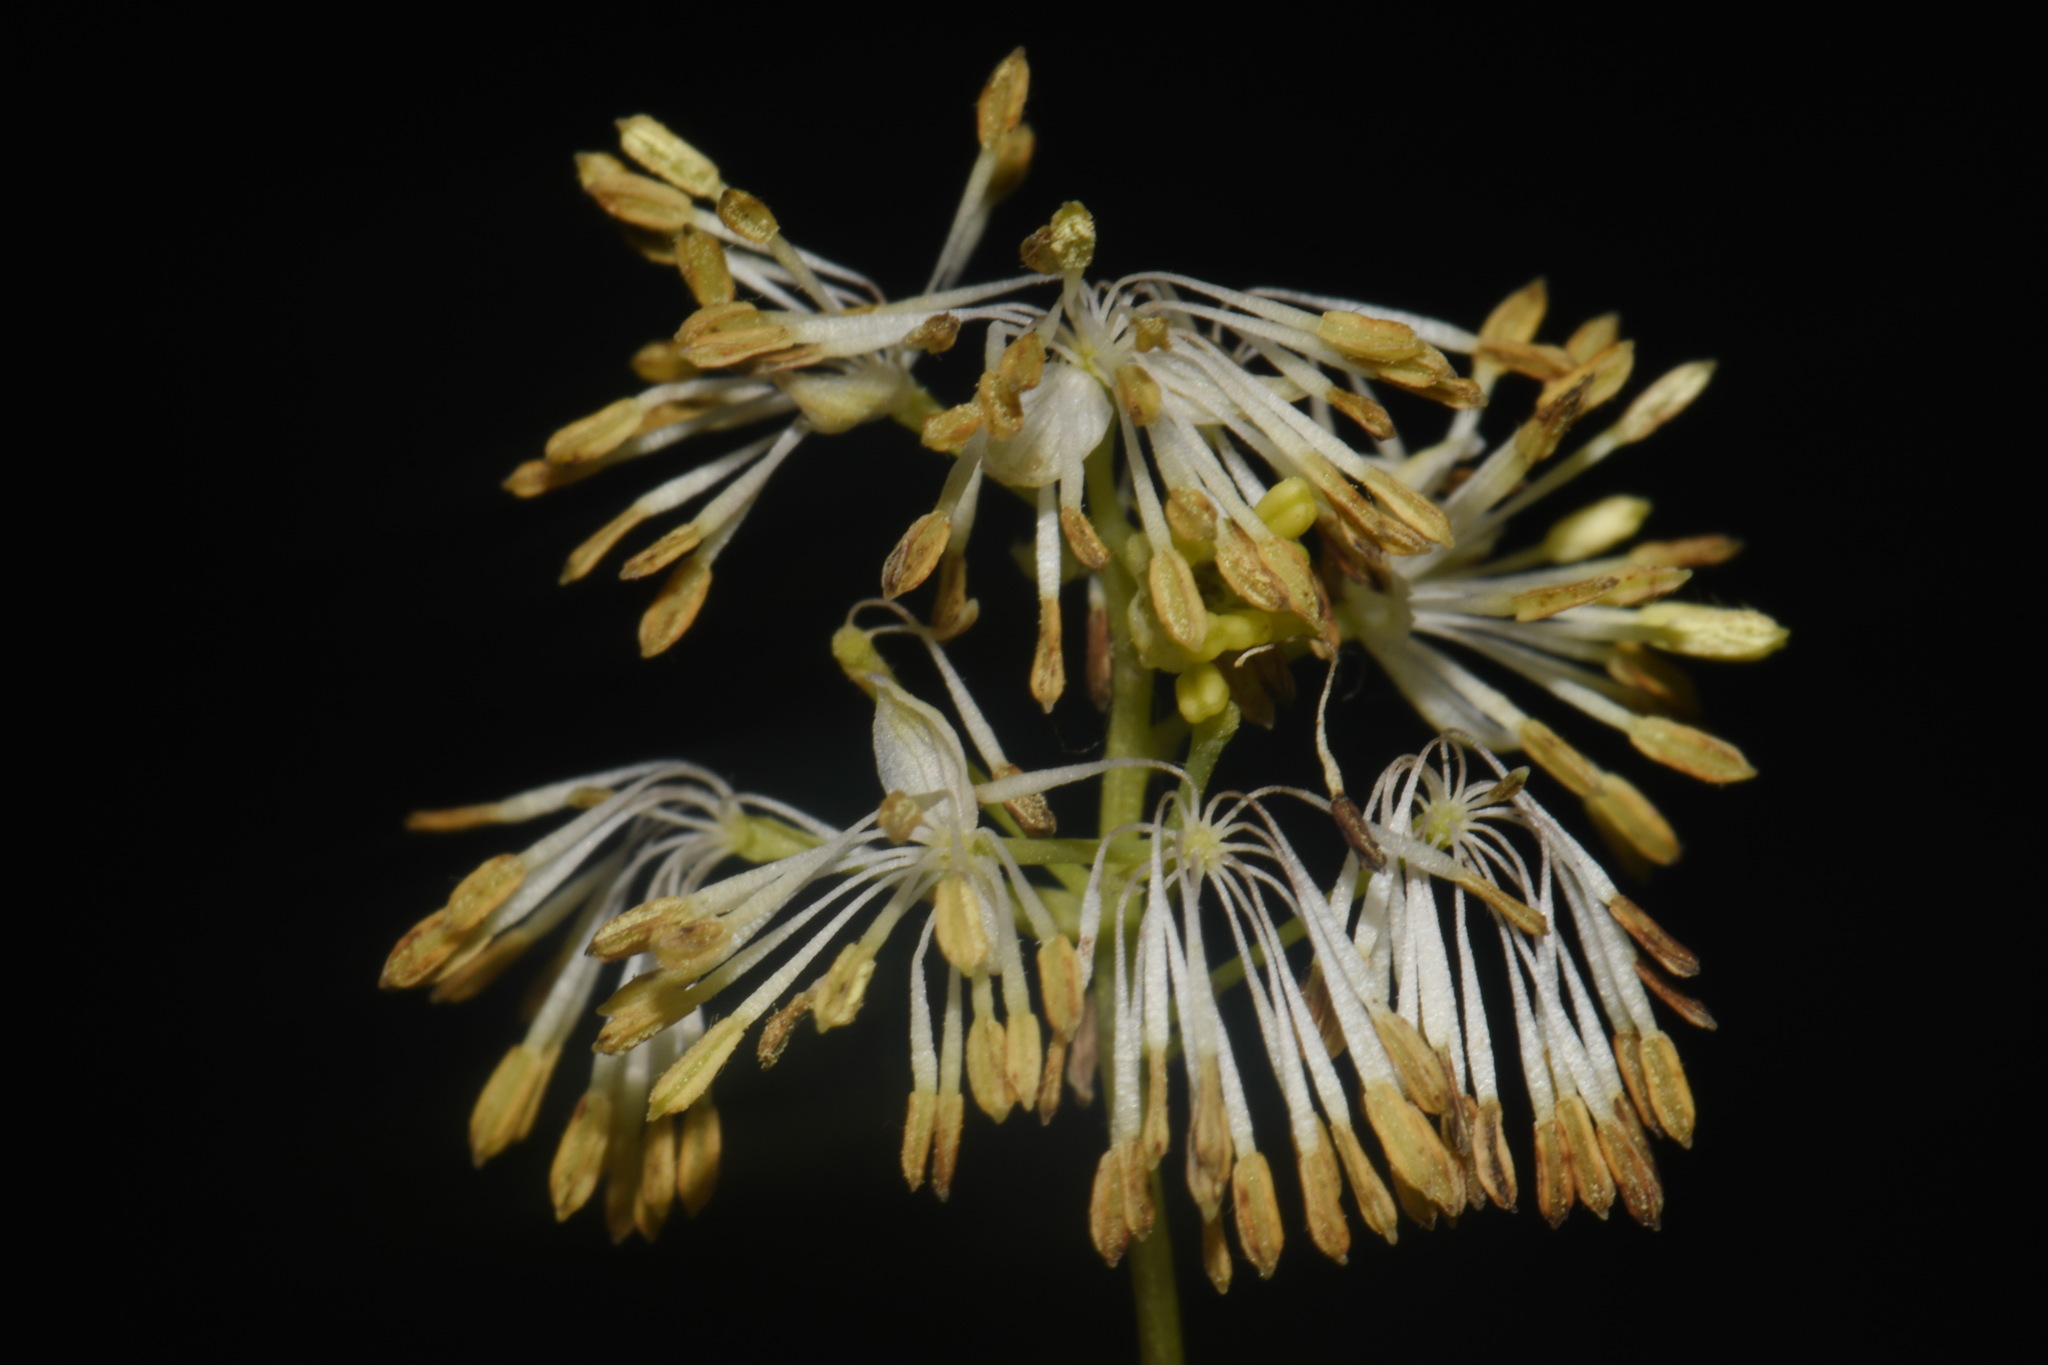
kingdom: Plantae
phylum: Tracheophyta
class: Magnoliopsida
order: Ranunculales
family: Ranunculaceae
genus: Thalictrum
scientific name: Thalictrum dasycarpum
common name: Purple meadow-rue
